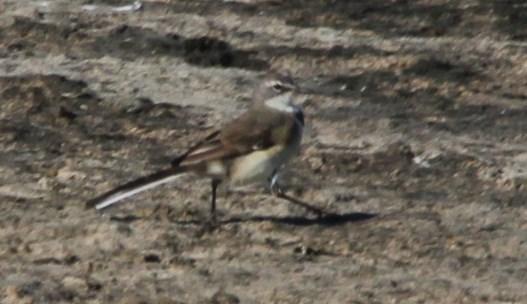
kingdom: Animalia
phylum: Chordata
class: Aves
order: Passeriformes
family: Motacillidae
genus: Motacilla
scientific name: Motacilla capensis
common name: Cape wagtail
